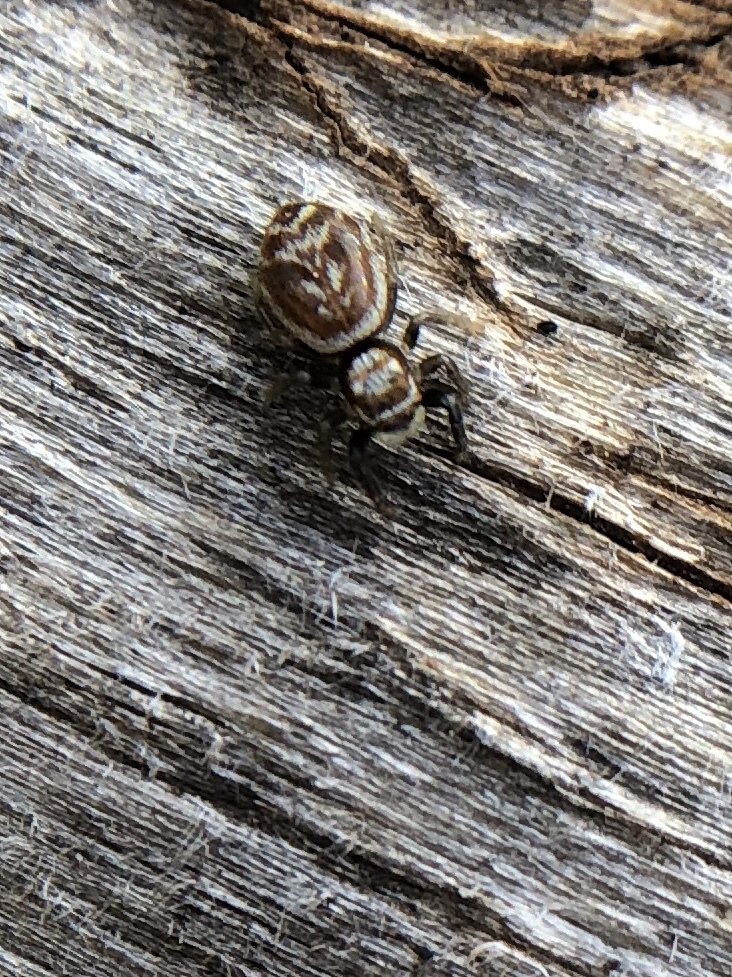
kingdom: Animalia
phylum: Arthropoda
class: Arachnida
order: Araneae
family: Salticidae
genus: Icius
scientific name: Icius congener
